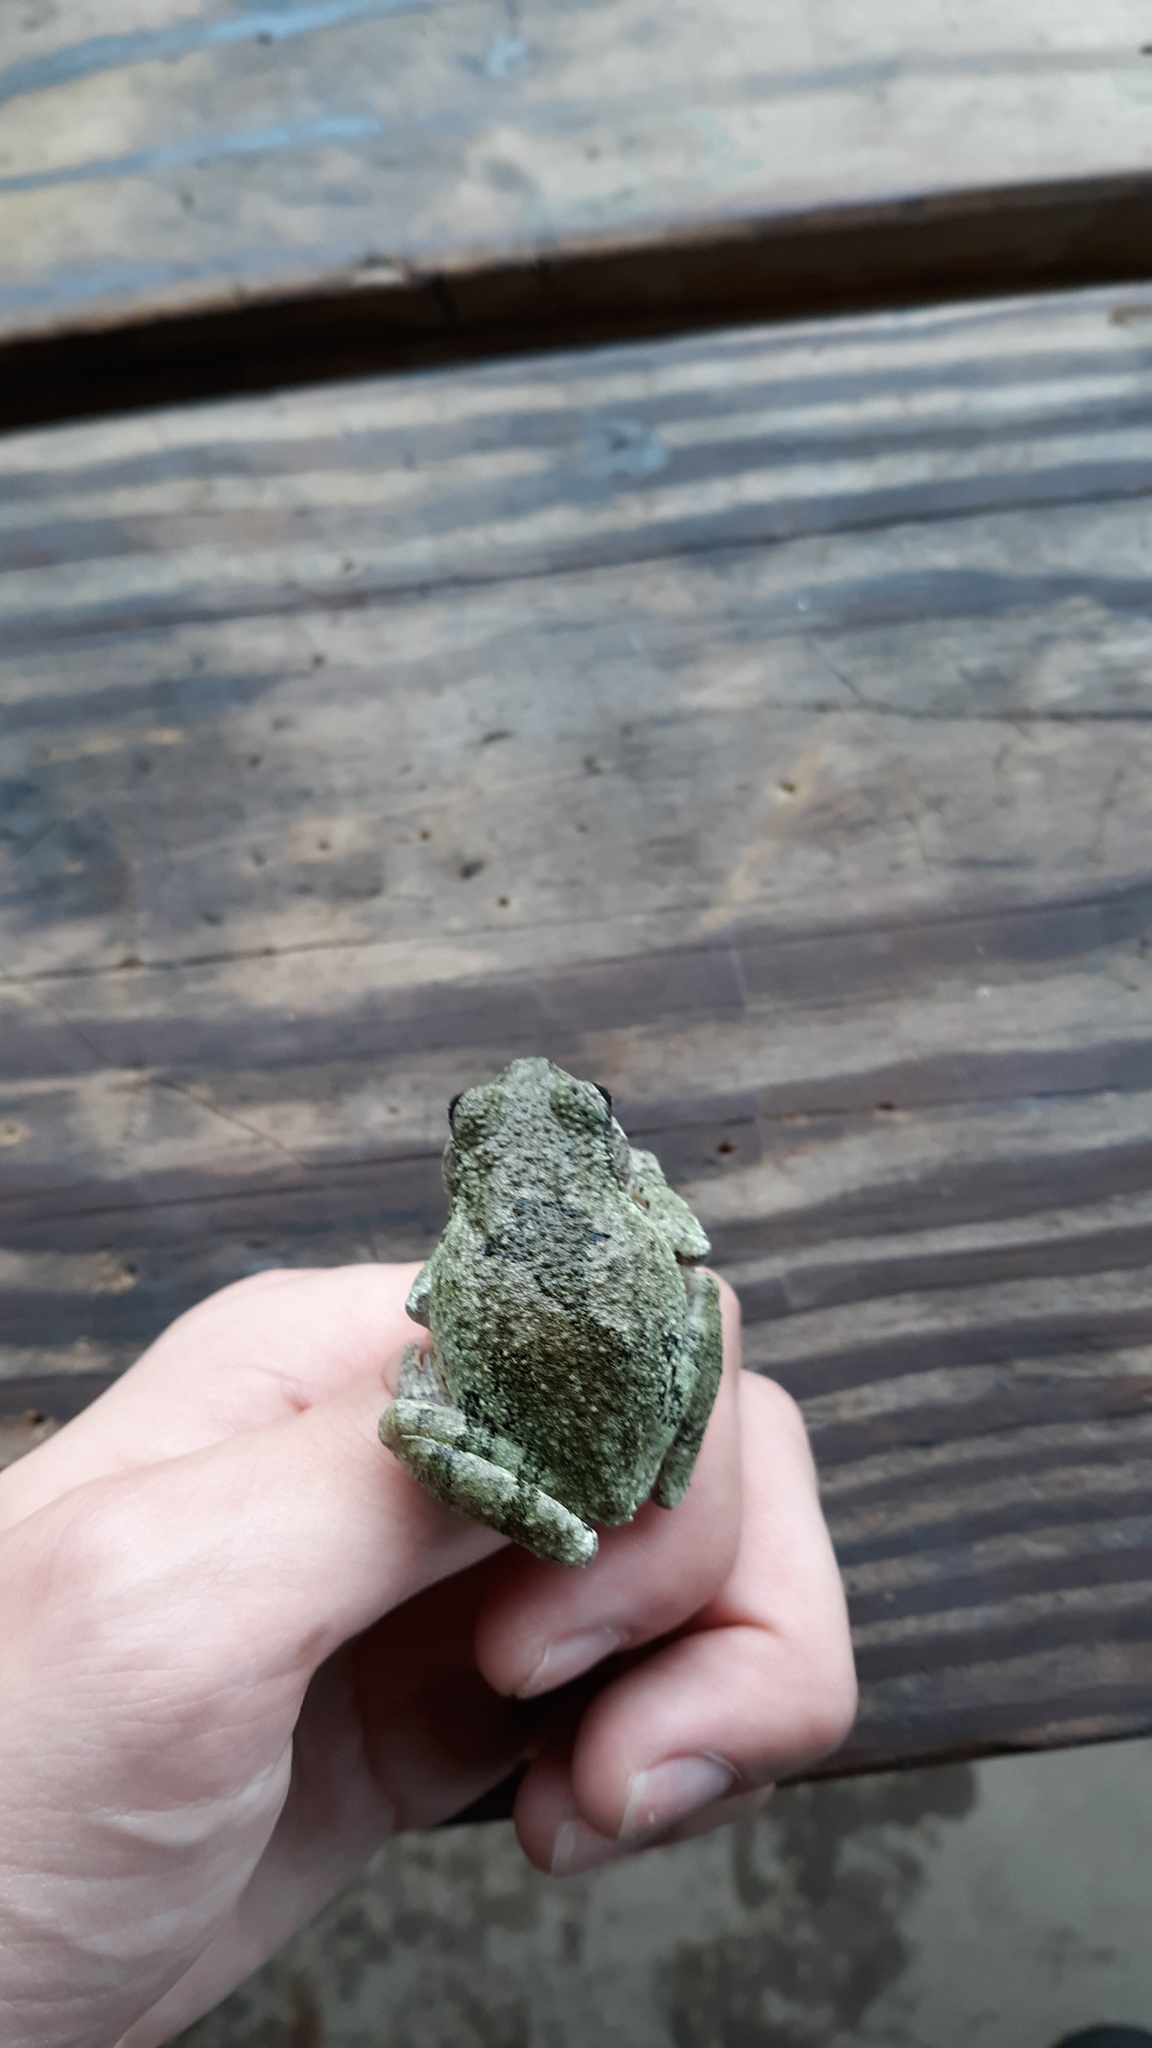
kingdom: Animalia
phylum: Chordata
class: Amphibia
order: Anura
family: Hylidae
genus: Hyla
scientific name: Hyla
